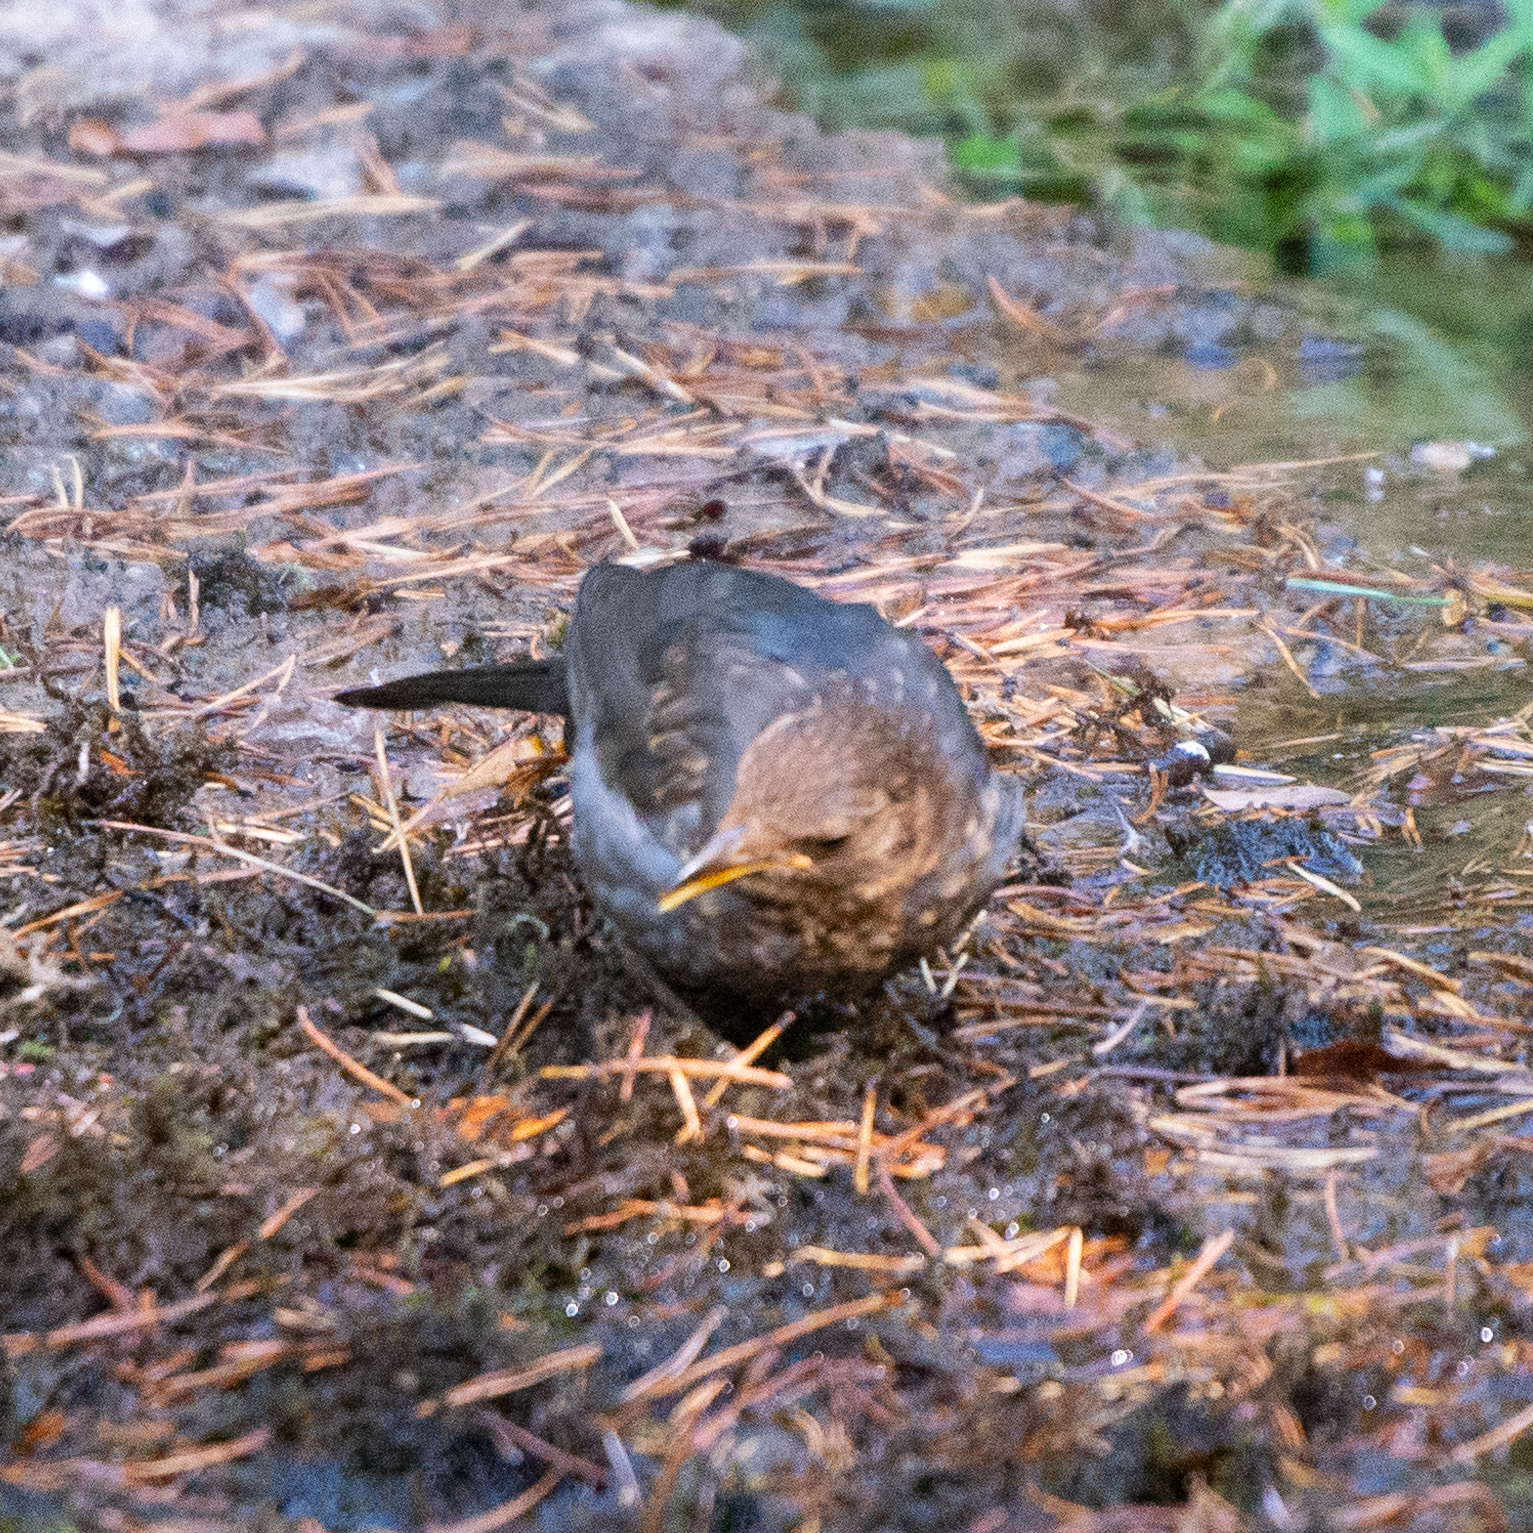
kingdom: Animalia
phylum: Chordata
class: Aves
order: Passeriformes
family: Turdidae
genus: Turdus
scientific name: Turdus merula
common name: Common blackbird
